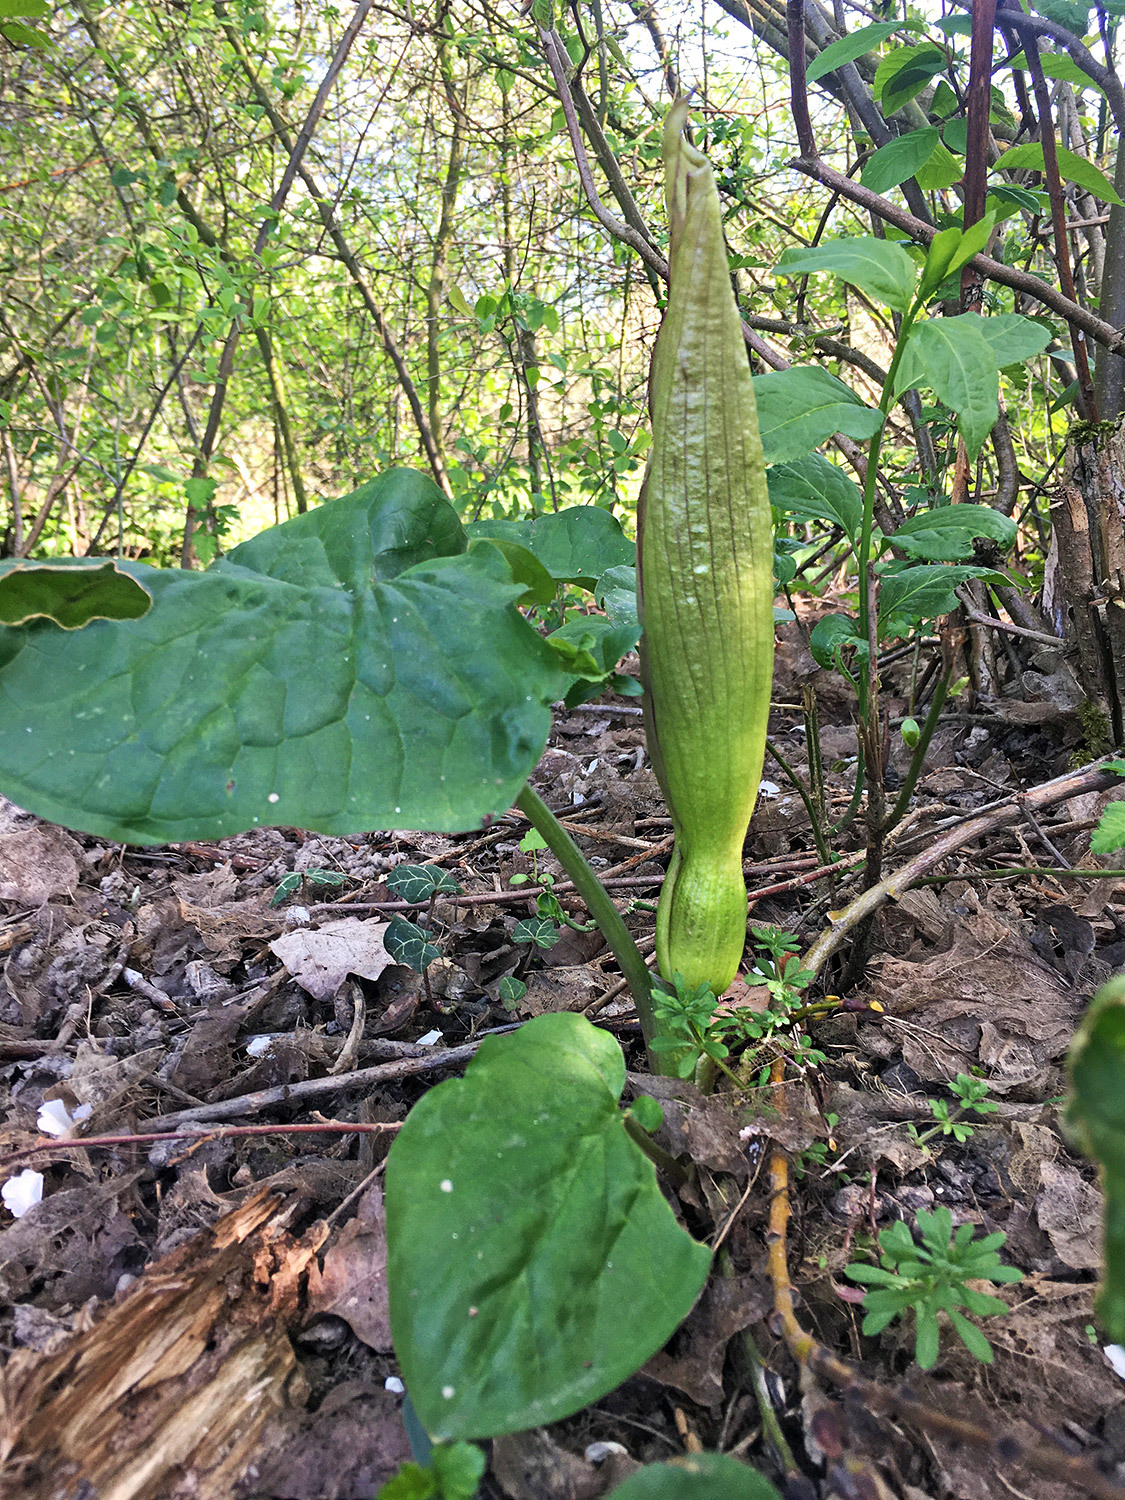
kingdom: Plantae
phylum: Tracheophyta
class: Liliopsida
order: Alismatales
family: Araceae
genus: Arum
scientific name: Arum maculatum
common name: Lords-and-ladies
